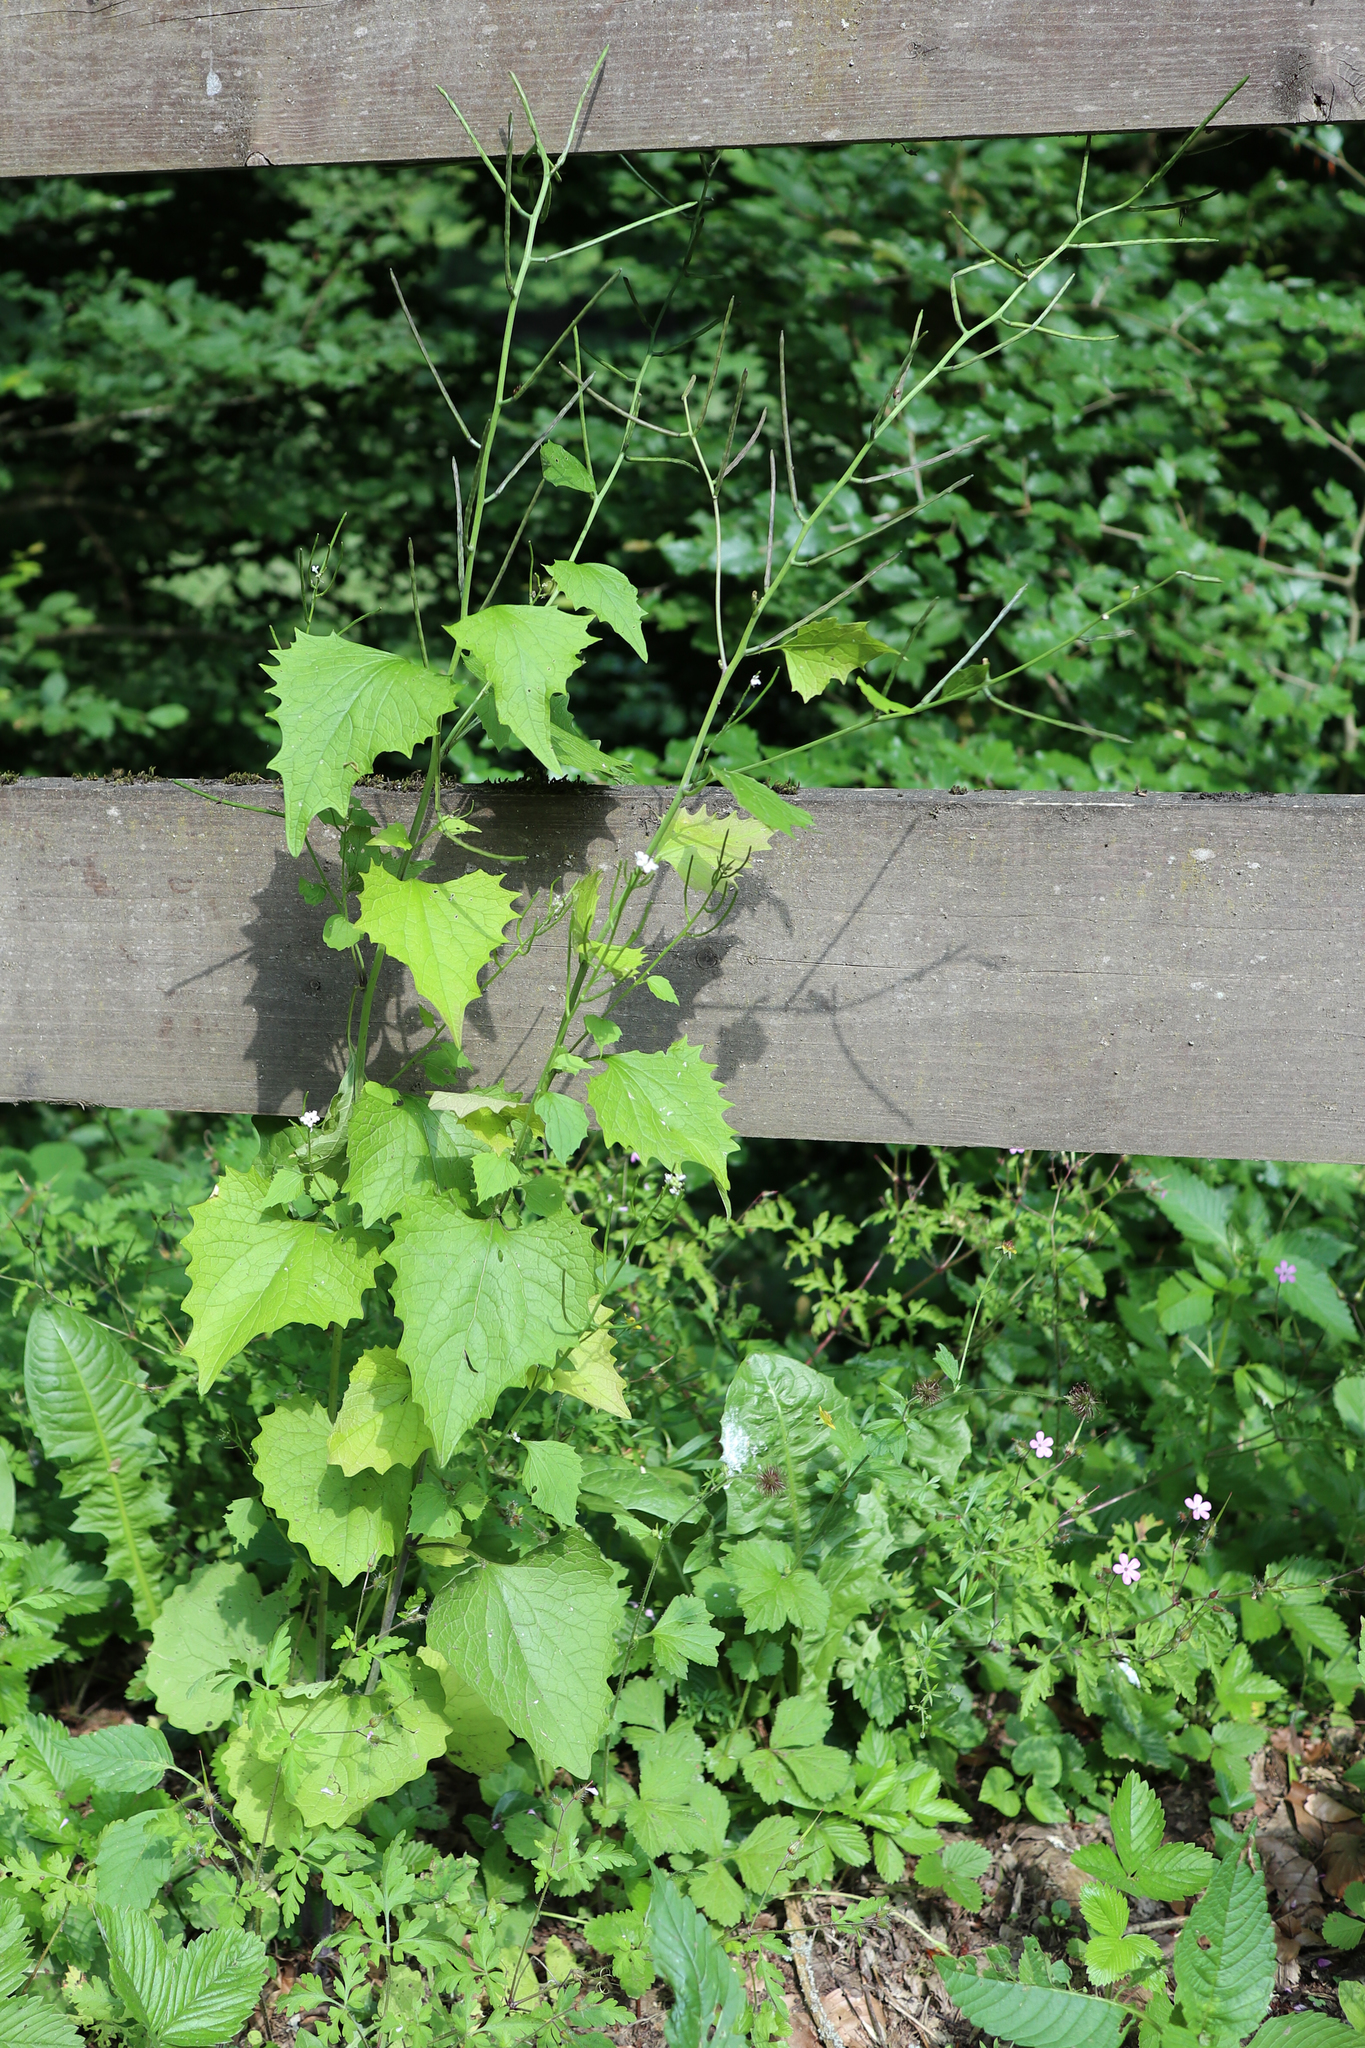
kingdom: Plantae
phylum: Tracheophyta
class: Magnoliopsida
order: Brassicales
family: Brassicaceae
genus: Alliaria
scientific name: Alliaria petiolata
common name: Garlic mustard
